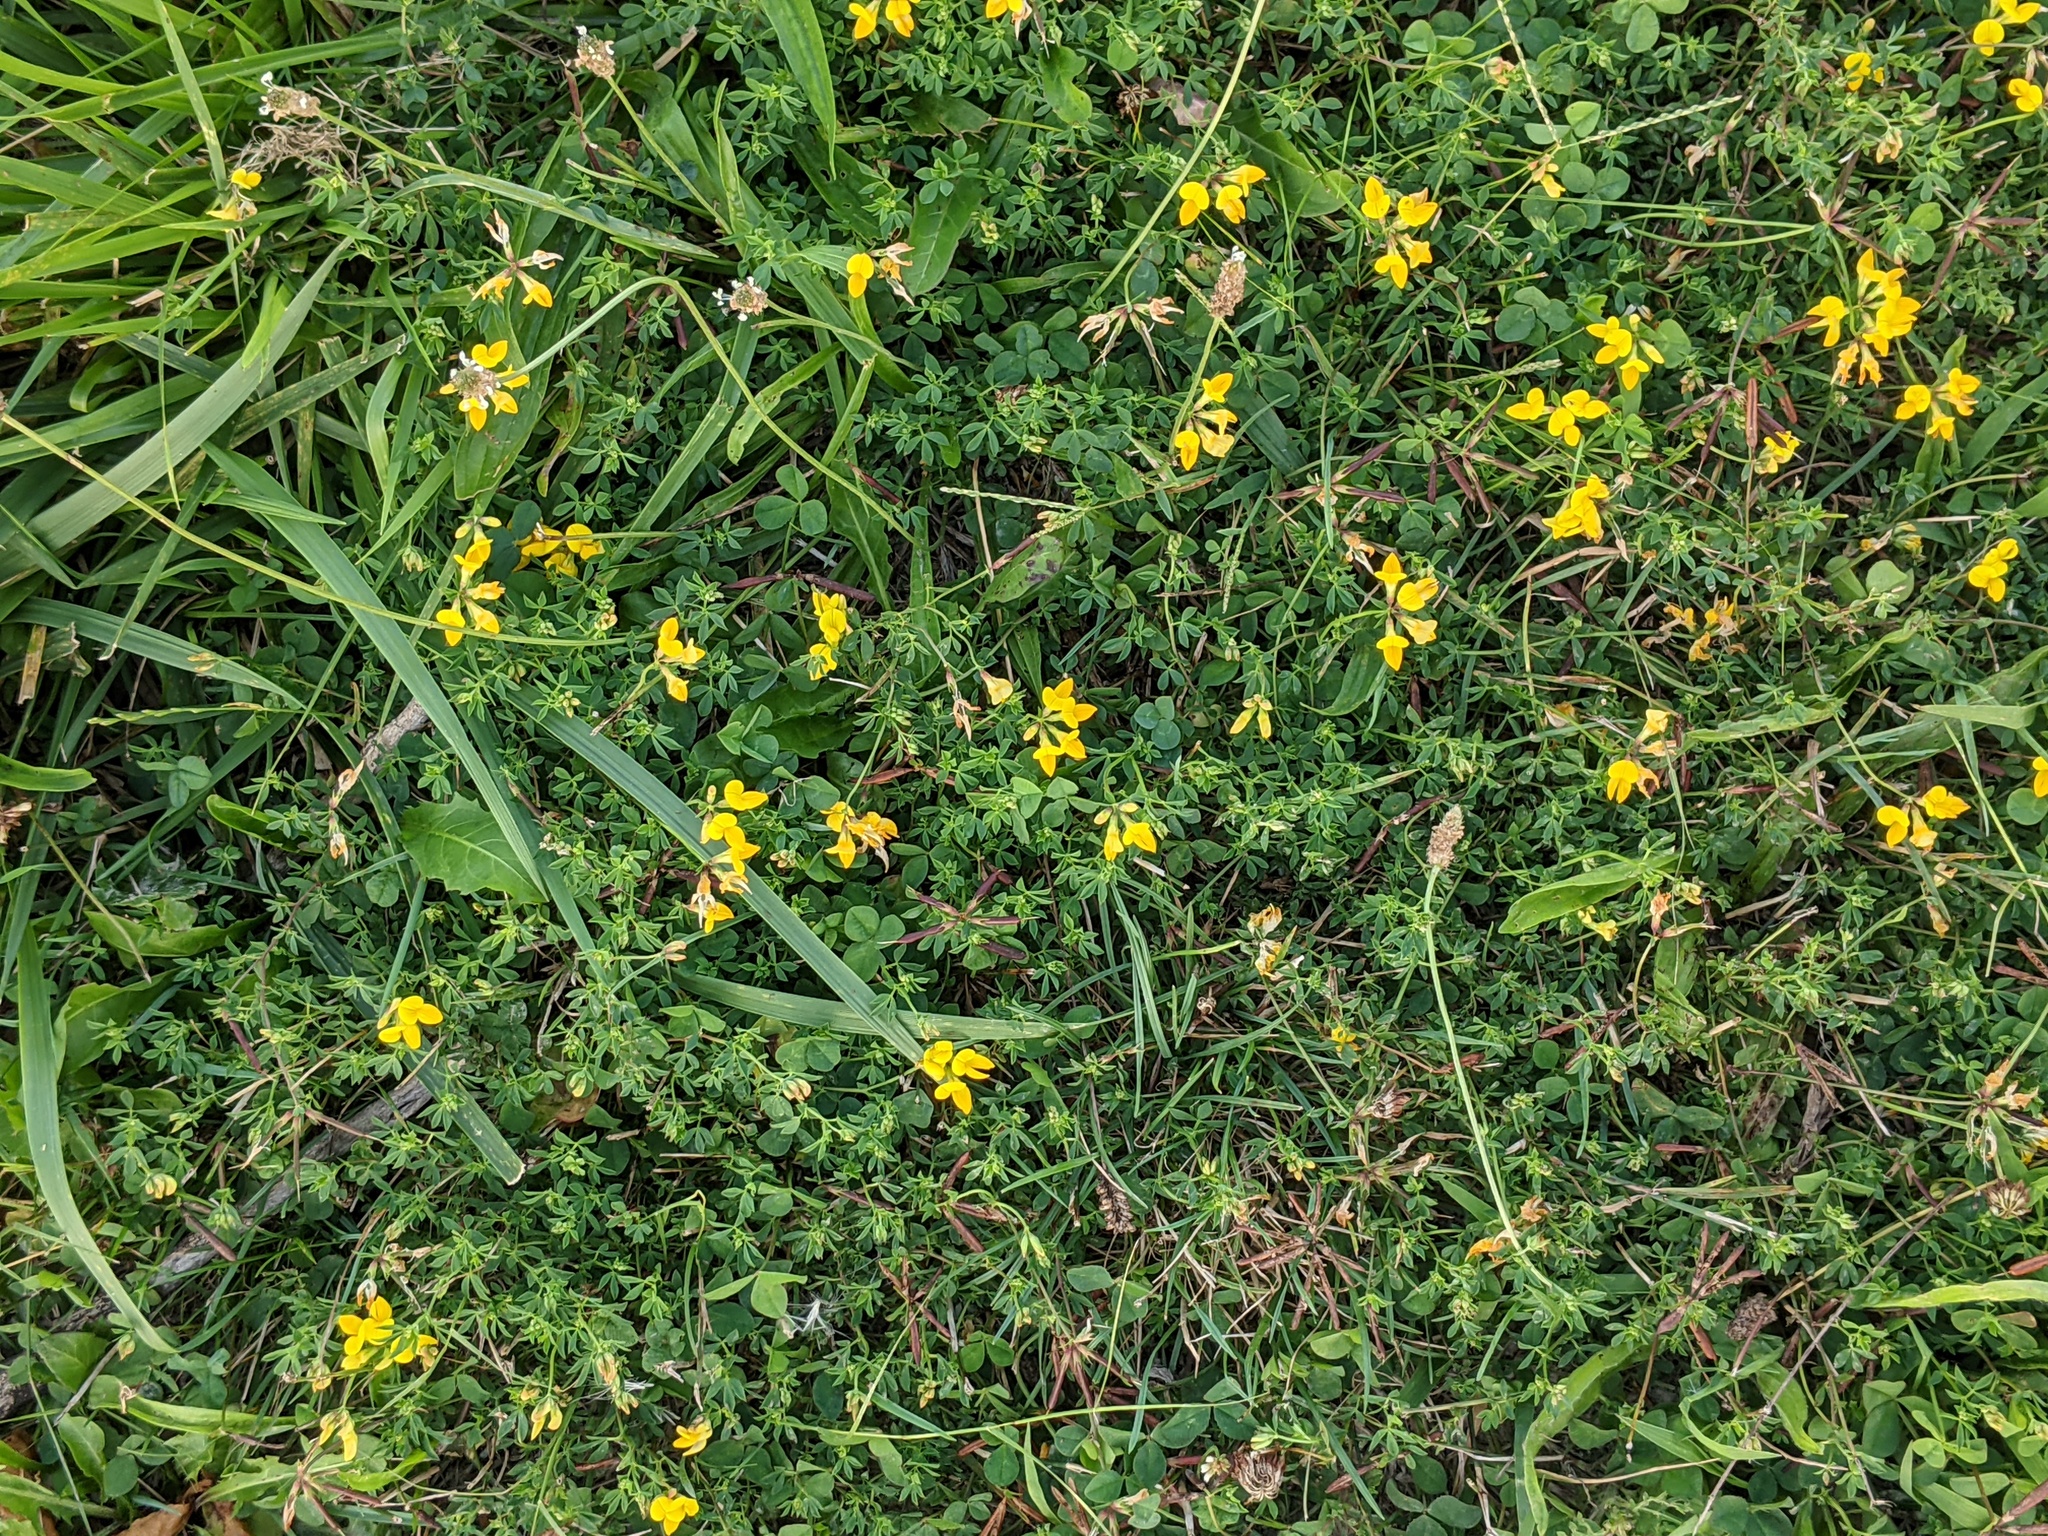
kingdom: Plantae
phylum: Tracheophyta
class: Magnoliopsida
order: Fabales
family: Fabaceae
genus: Lotus
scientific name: Lotus corniculatus
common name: Common bird's-foot-trefoil
